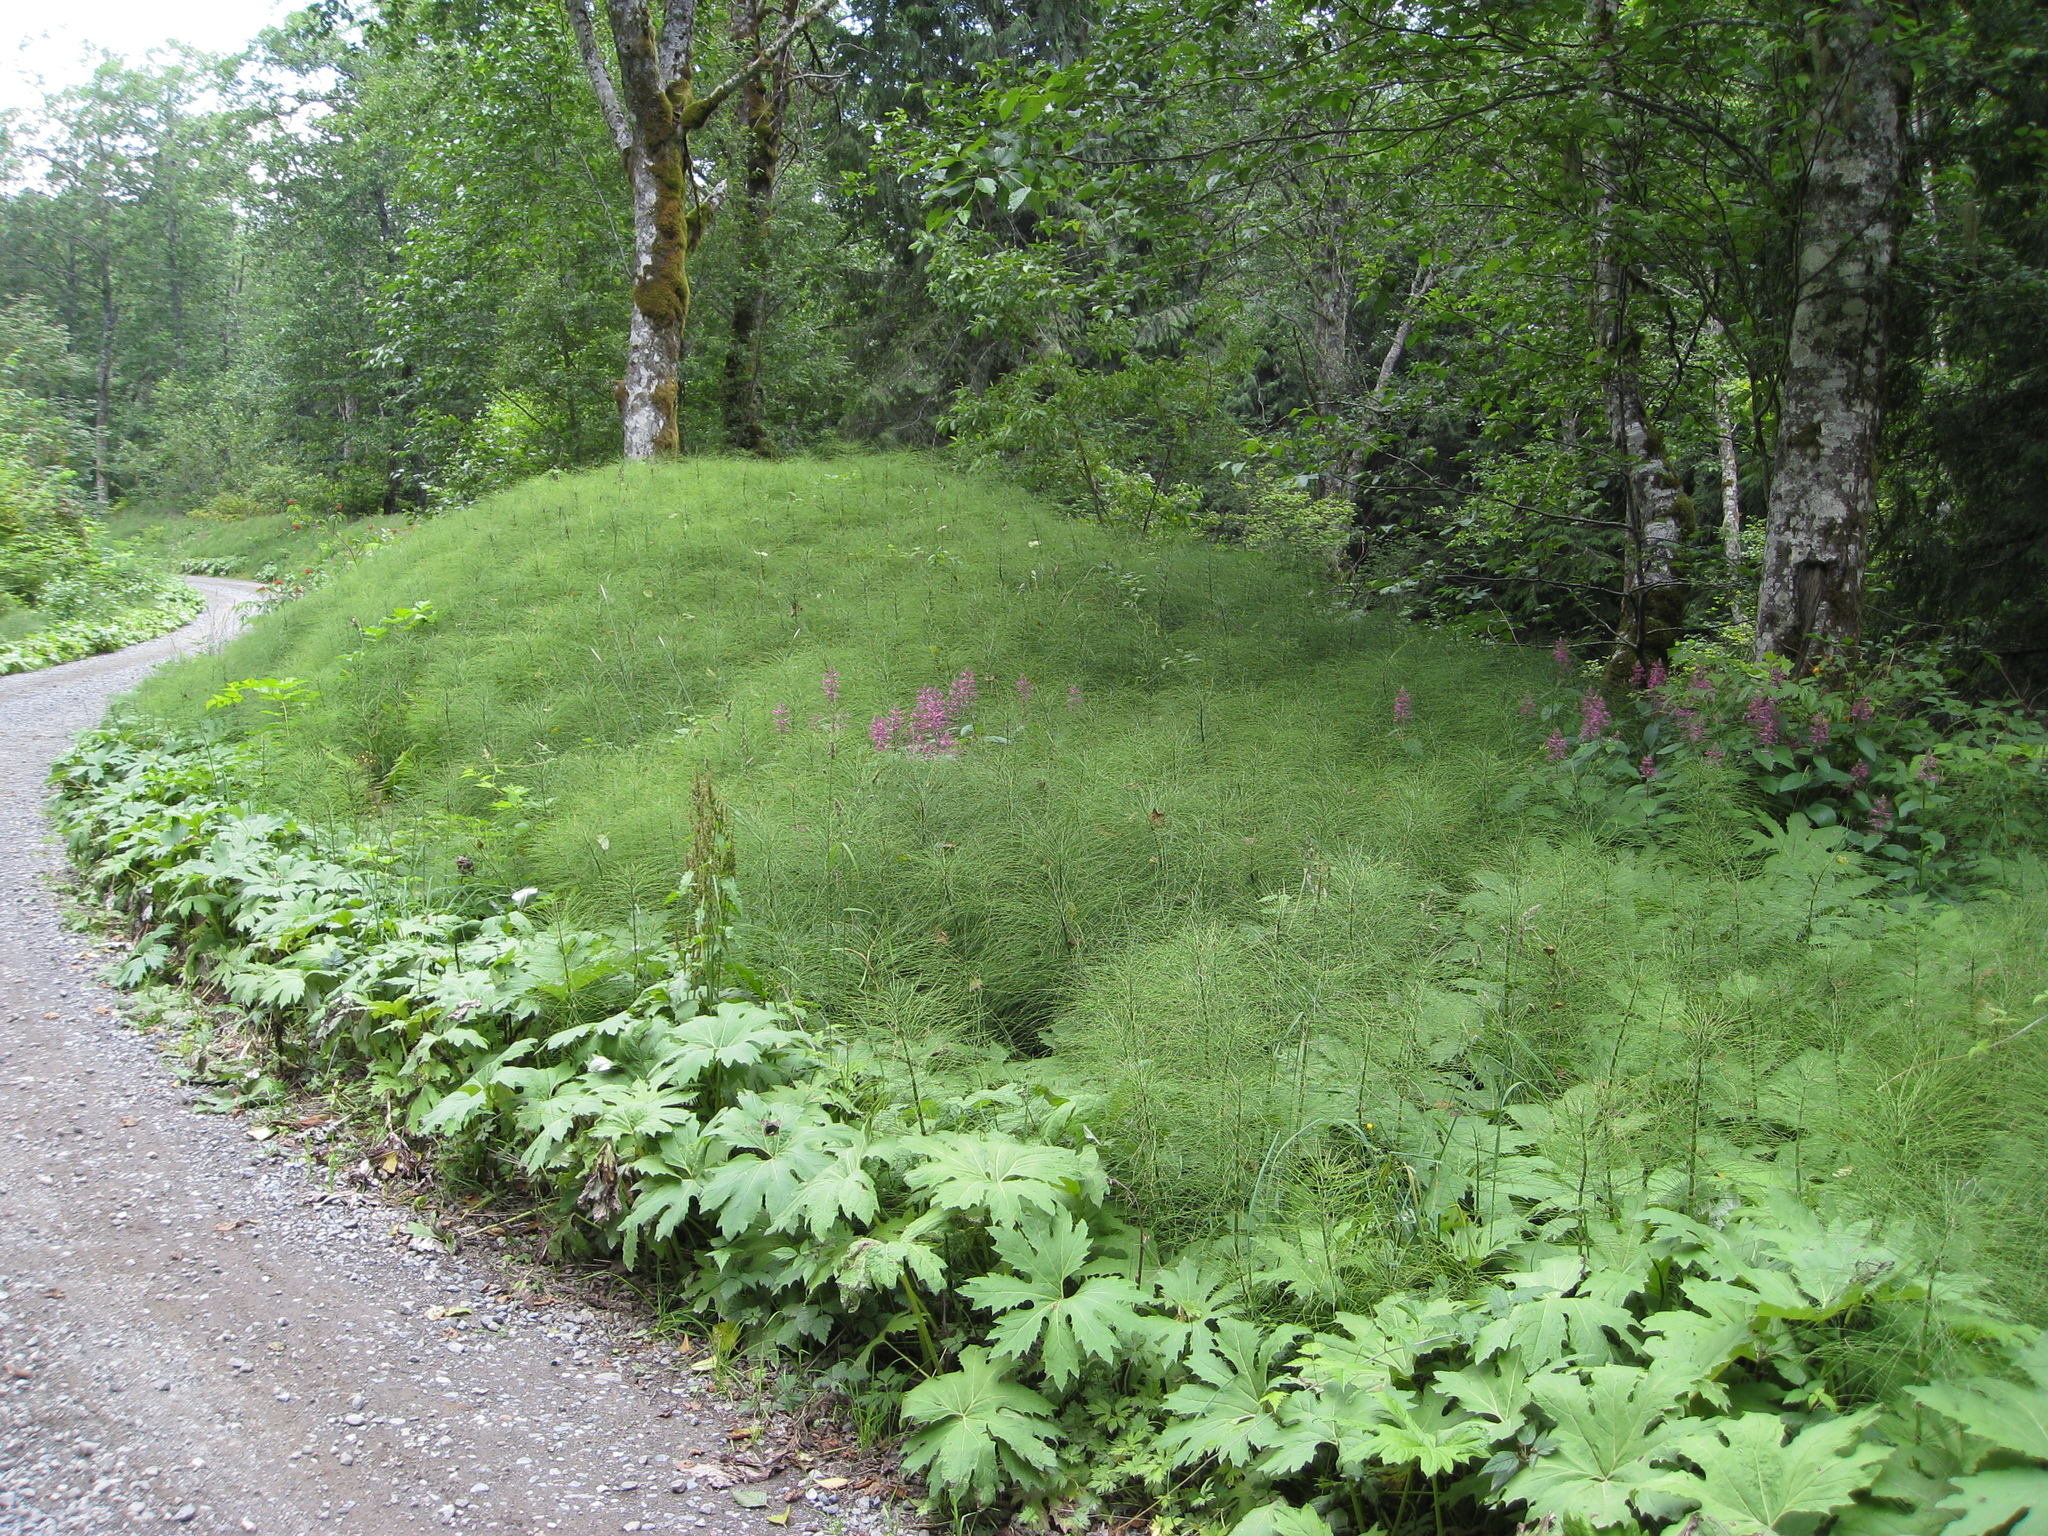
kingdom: Plantae
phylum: Tracheophyta
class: Polypodiopsida
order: Equisetales
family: Equisetaceae
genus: Equisetum
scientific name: Equisetum telmateia
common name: Great horsetail
